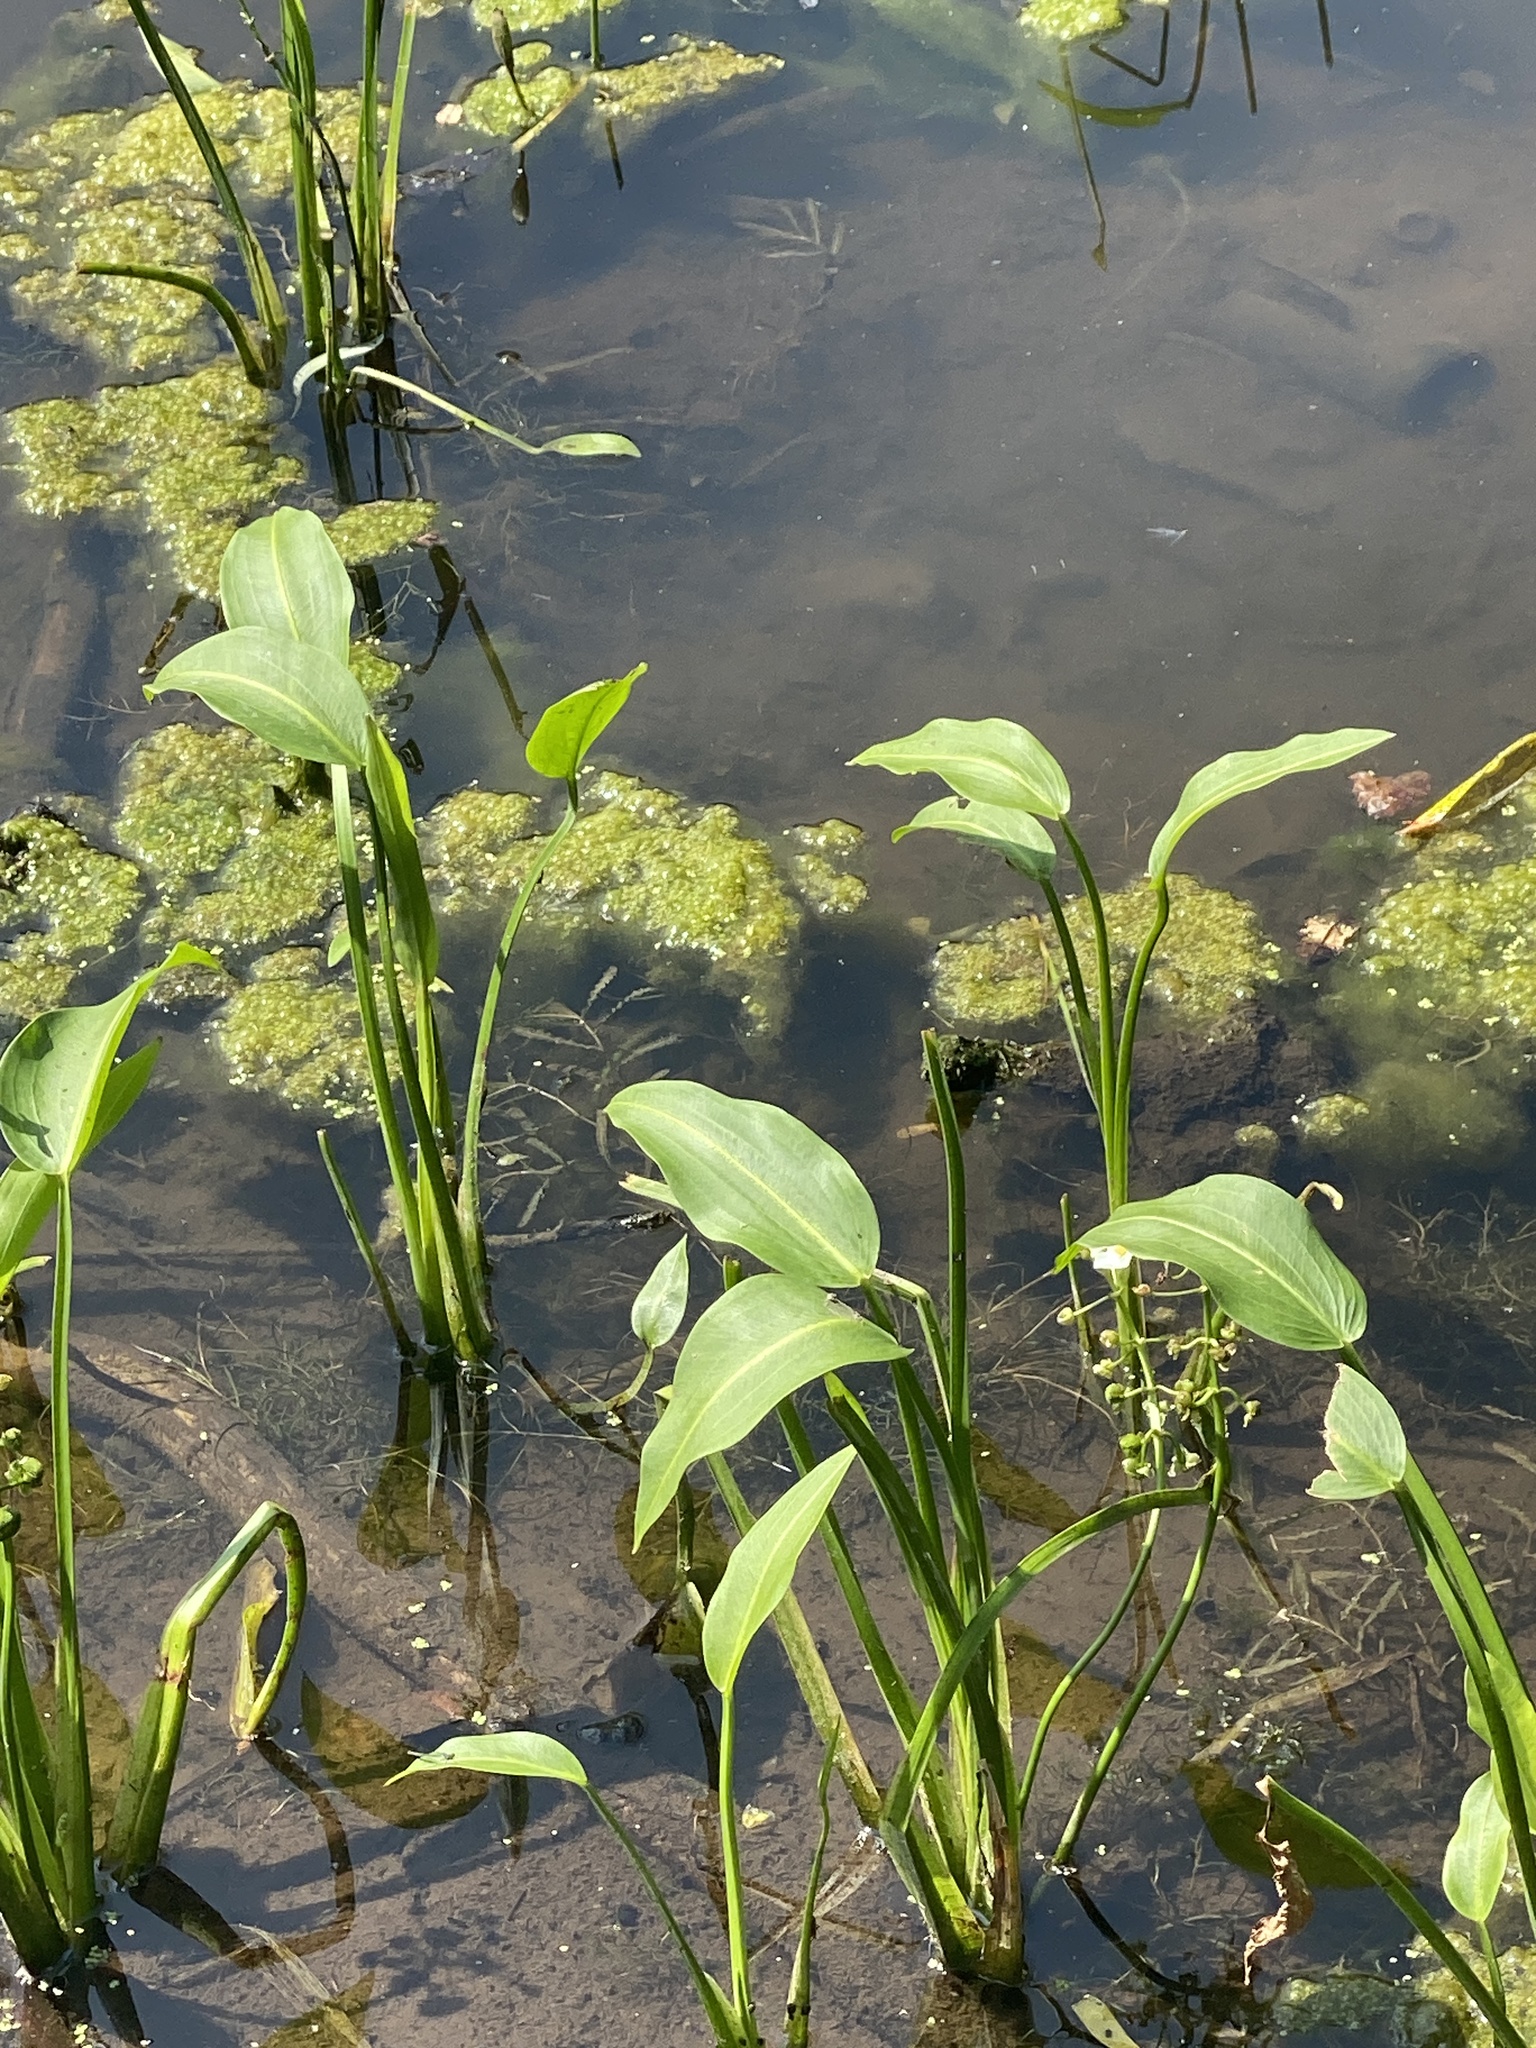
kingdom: Plantae
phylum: Tracheophyta
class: Liliopsida
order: Alismatales
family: Alismataceae
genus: Sagittaria
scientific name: Sagittaria platyphylla
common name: Broad-leaf arrowhead
